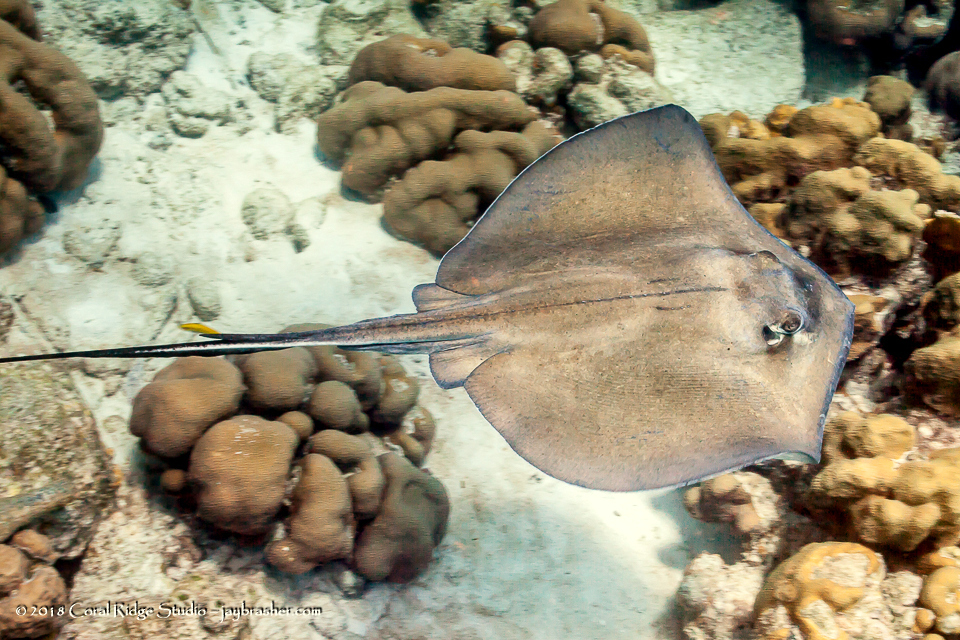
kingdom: Animalia
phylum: Chordata
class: Elasmobranchii
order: Myliobatiformes
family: Dasyatidae
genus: Hypanus
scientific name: Hypanus americanus
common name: Southern stingray
